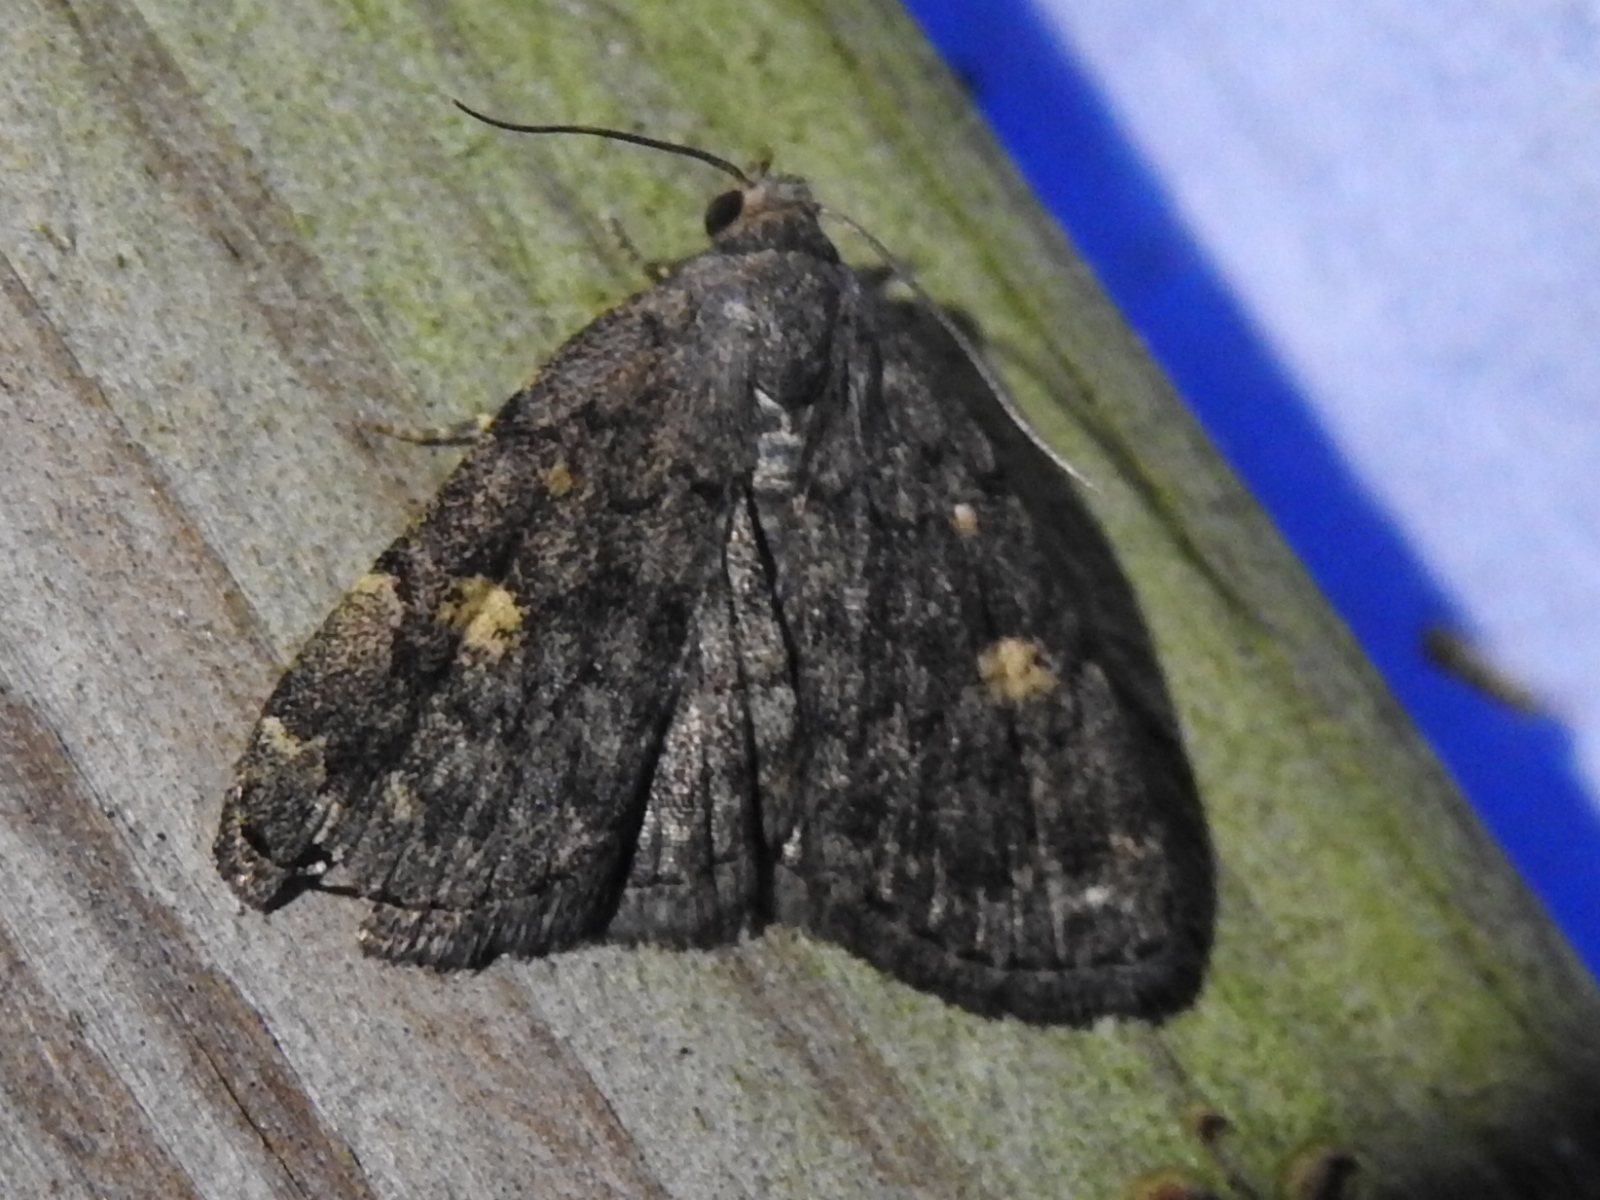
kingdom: Animalia
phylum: Arthropoda
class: Insecta
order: Lepidoptera
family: Erebidae
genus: Idia
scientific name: Idia aemula
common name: Common idia moth
